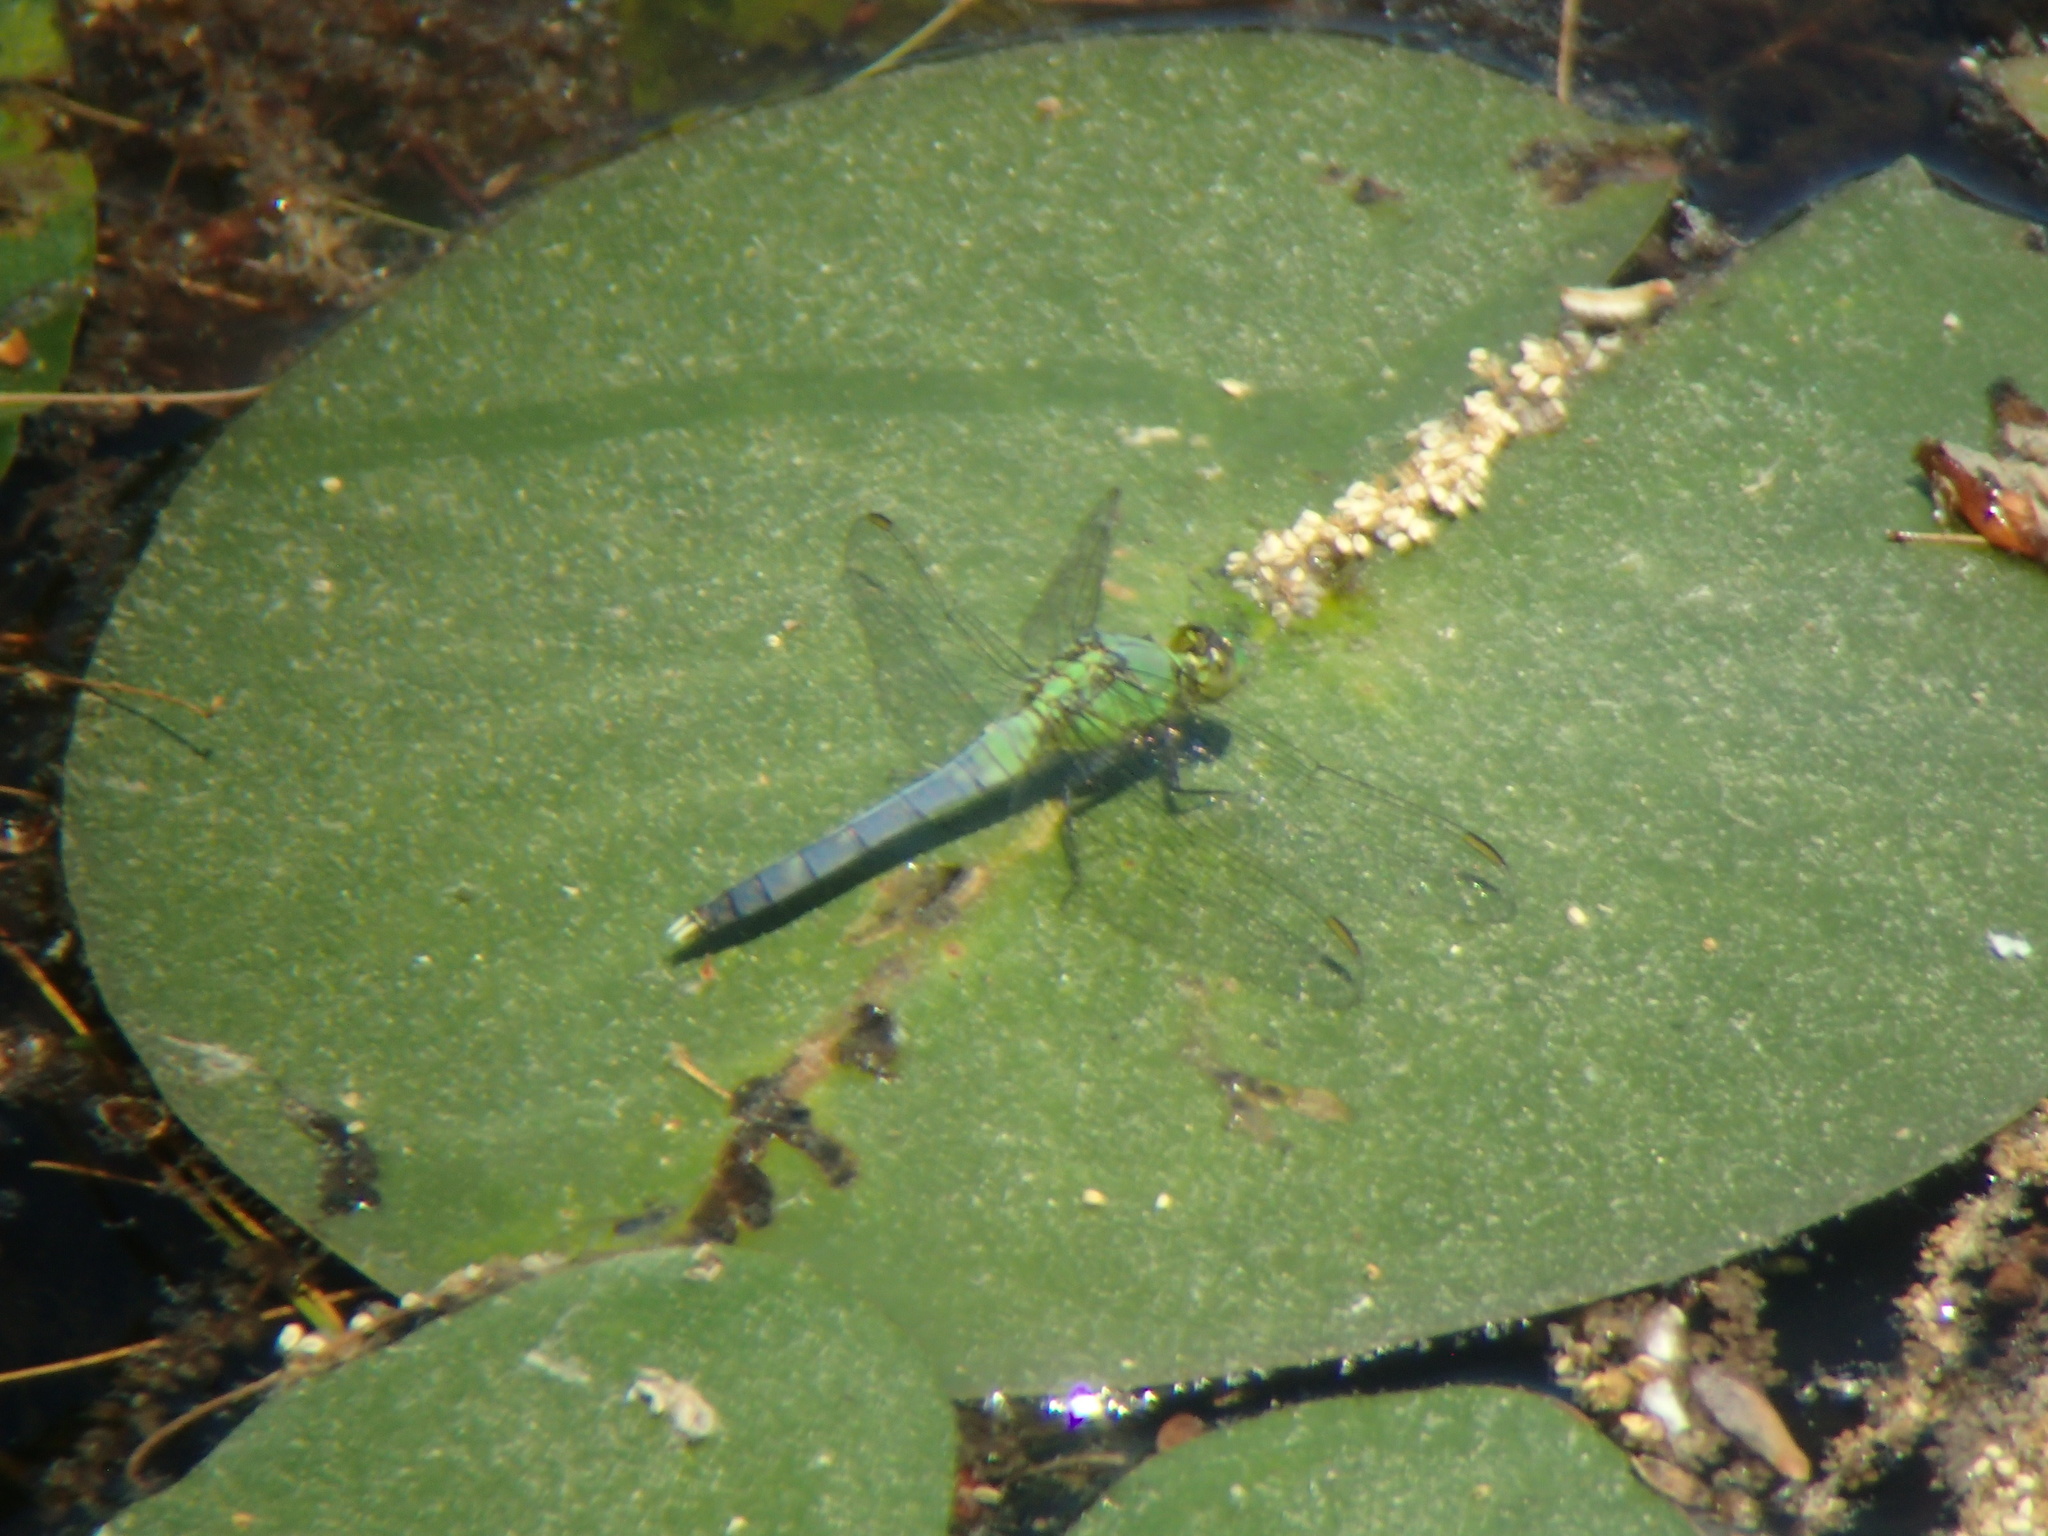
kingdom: Animalia
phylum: Arthropoda
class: Insecta
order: Odonata
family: Libellulidae
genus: Erythemis
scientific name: Erythemis simplicicollis
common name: Eastern pondhawk
